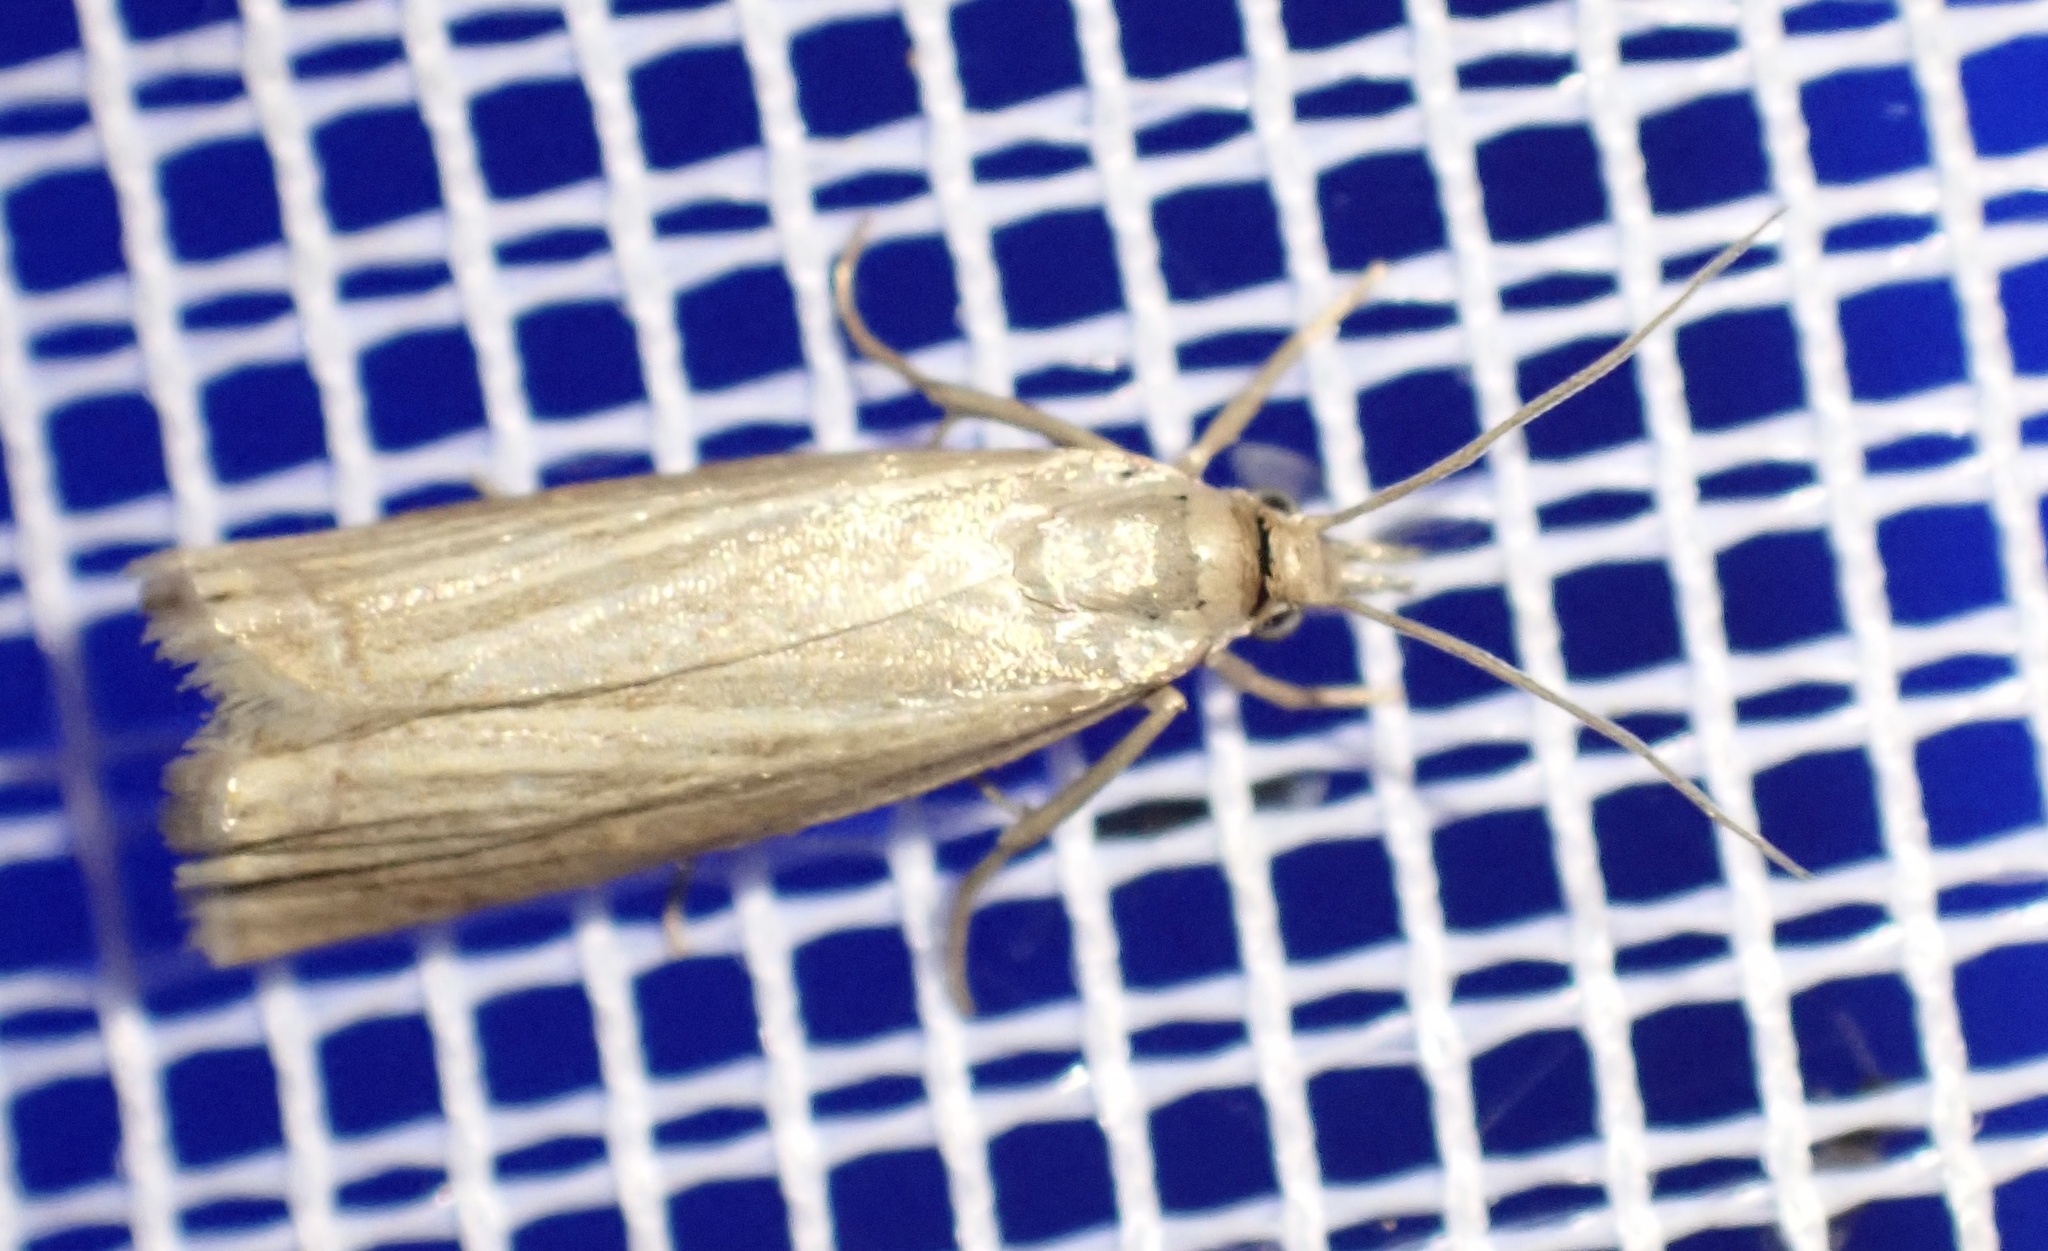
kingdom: Animalia
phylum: Arthropoda
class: Insecta
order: Lepidoptera
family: Crambidae
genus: Chrysoteuchia
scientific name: Chrysoteuchia culmella
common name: Garden grass-veneer
